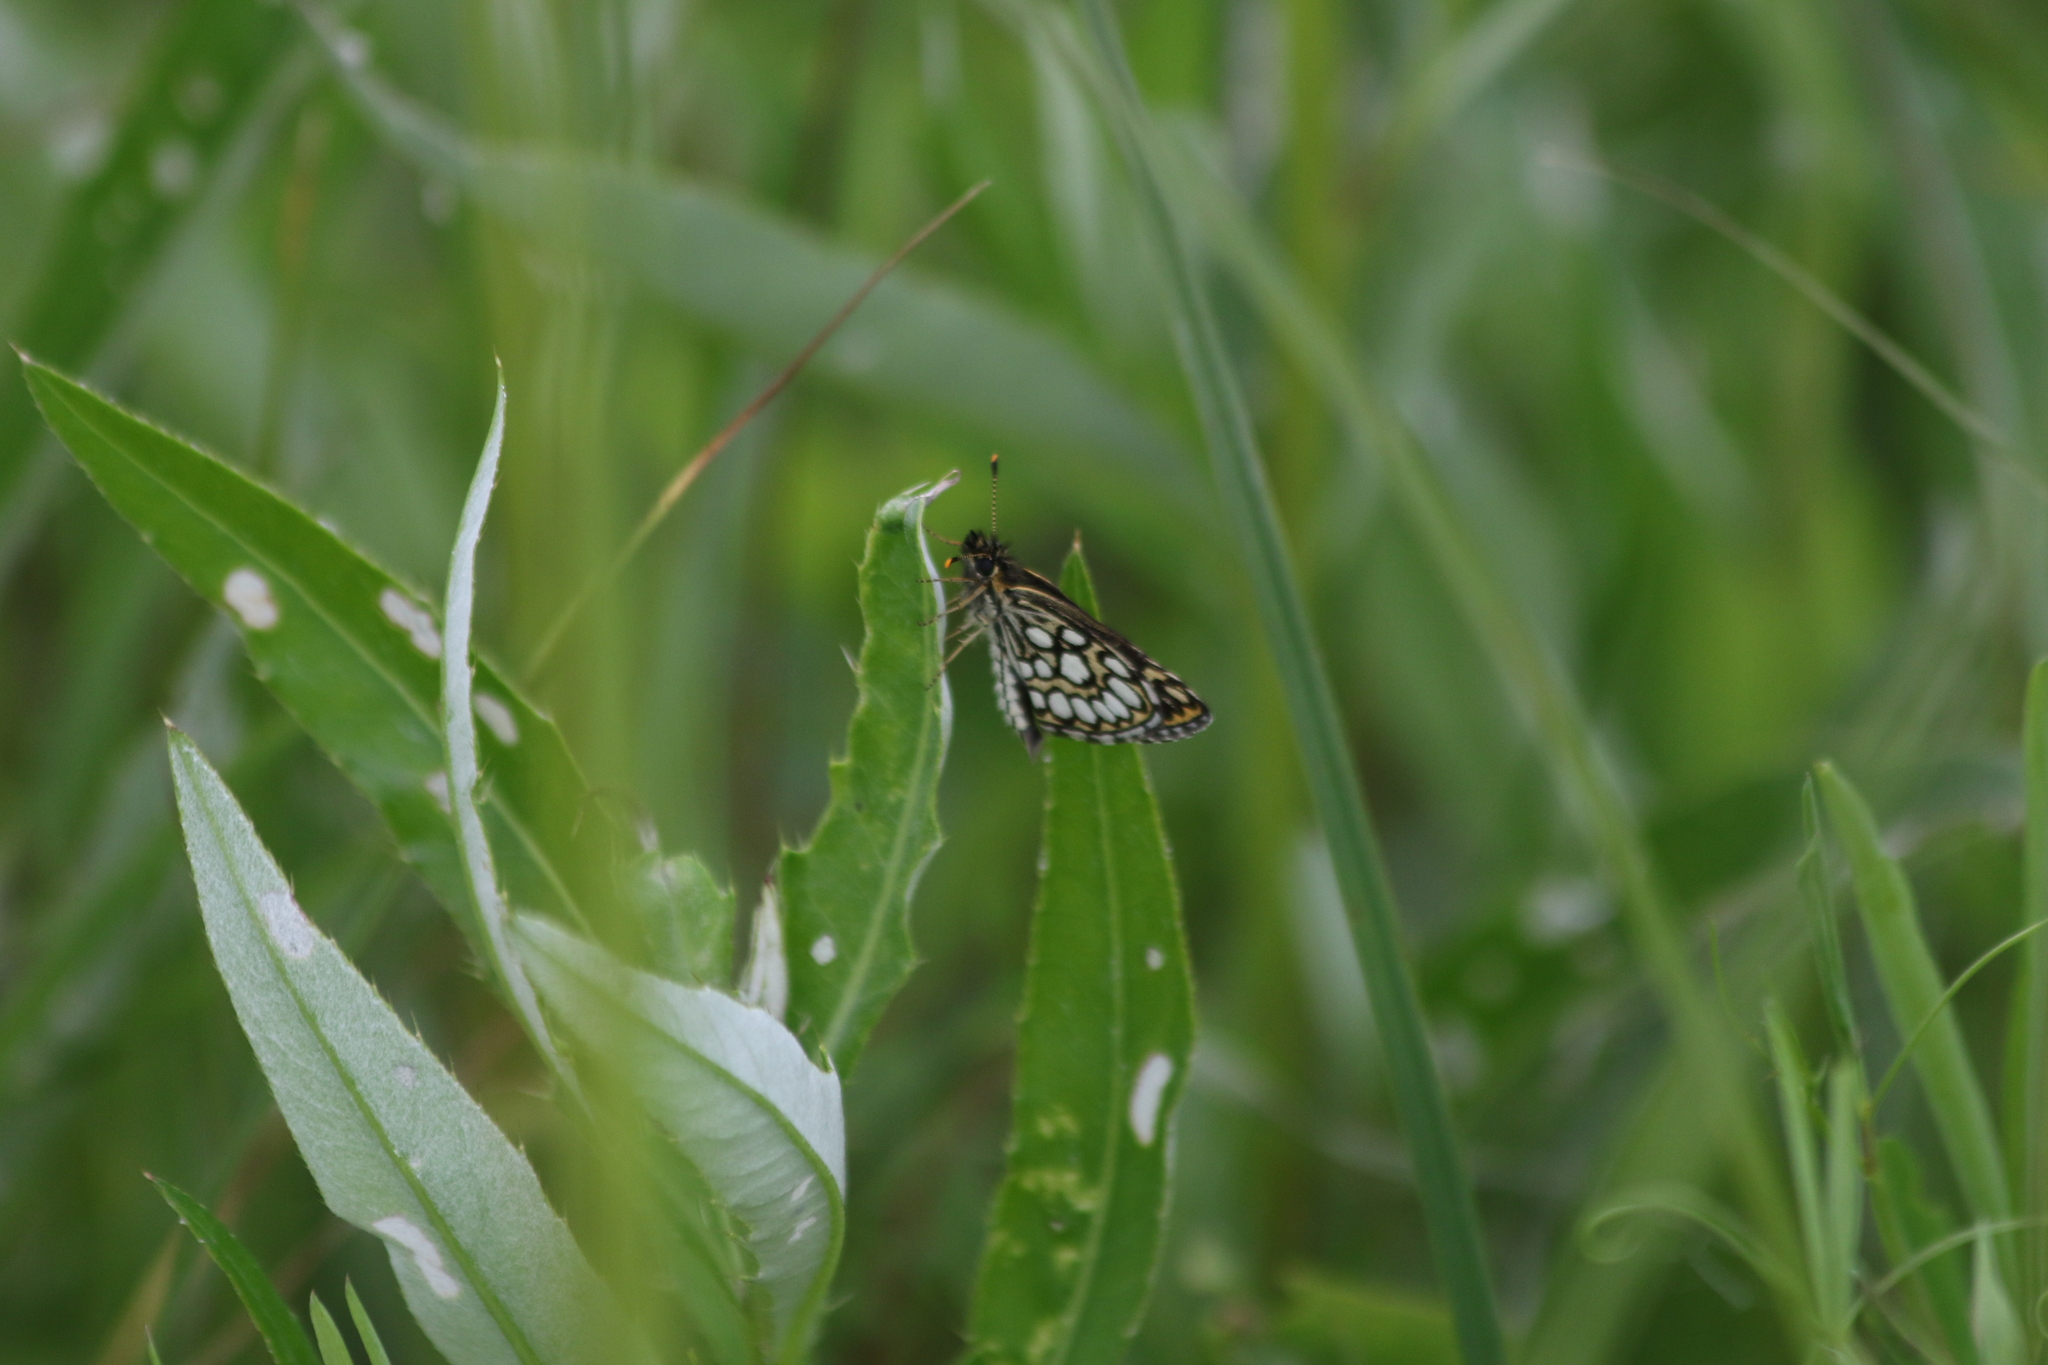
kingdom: Animalia
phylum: Arthropoda
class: Insecta
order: Lepidoptera
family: Hesperiidae
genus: Heteropterus
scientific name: Heteropterus morpheus
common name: Large chequered skipper
